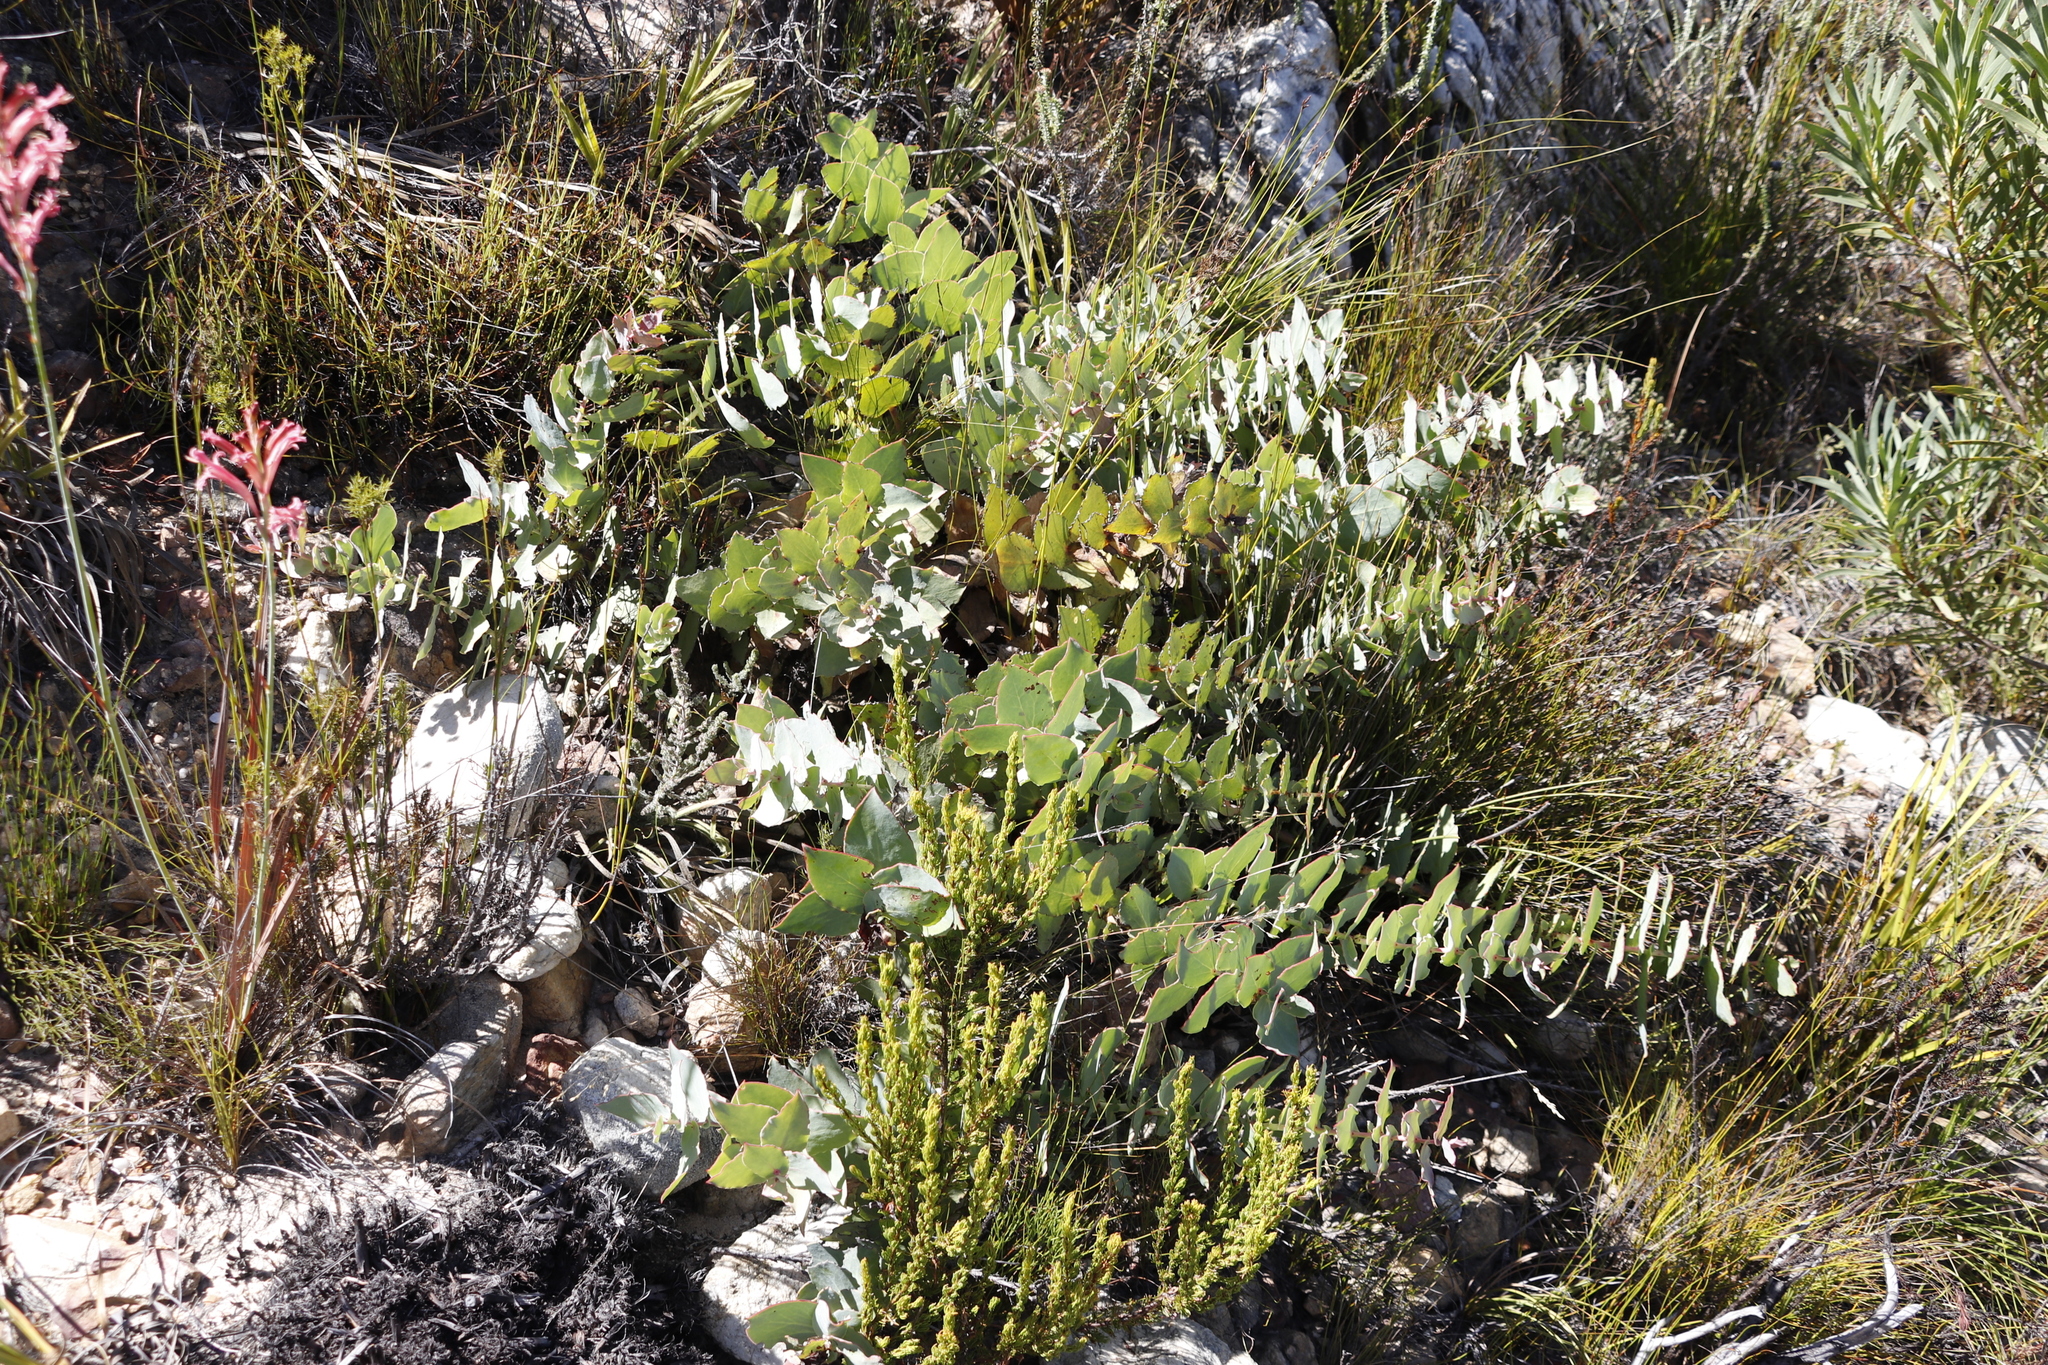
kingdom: Plantae
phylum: Tracheophyta
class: Magnoliopsida
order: Proteales
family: Proteaceae
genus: Protea
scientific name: Protea amplexicaulis
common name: Clasping-leaf sugarbush
